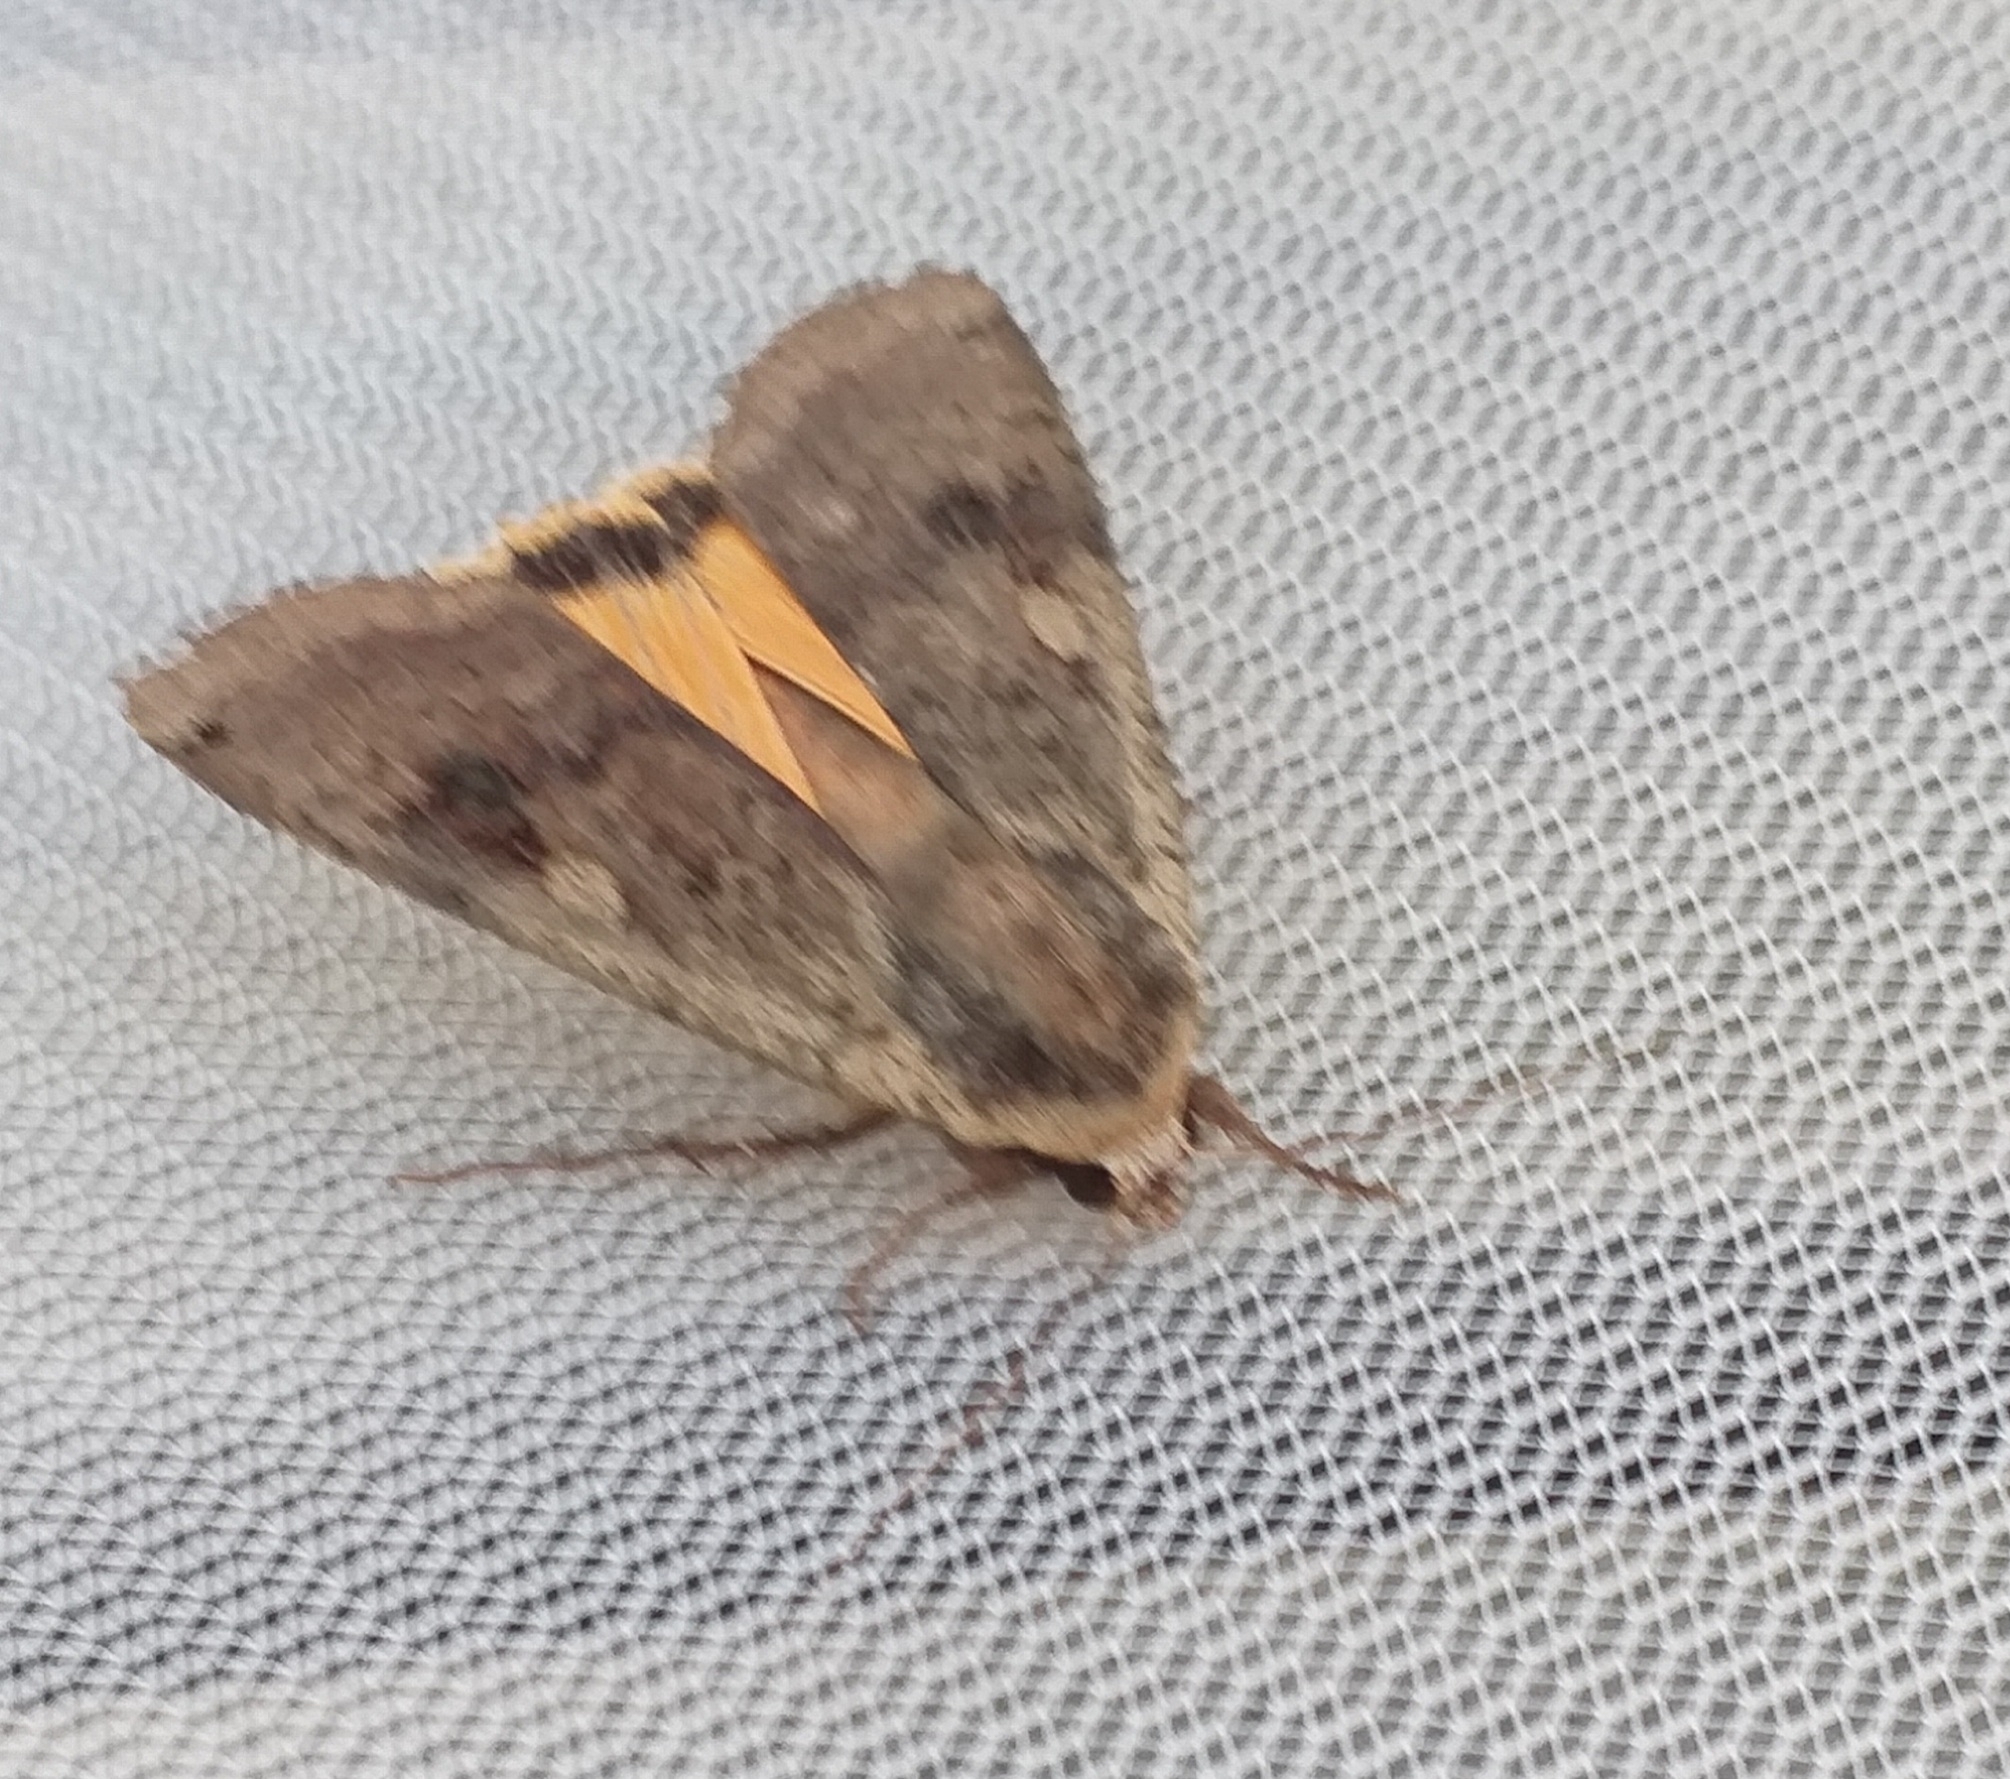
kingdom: Animalia
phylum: Arthropoda
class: Insecta
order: Lepidoptera
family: Noctuidae
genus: Noctua
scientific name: Noctua pronuba
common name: Large yellow underwing
